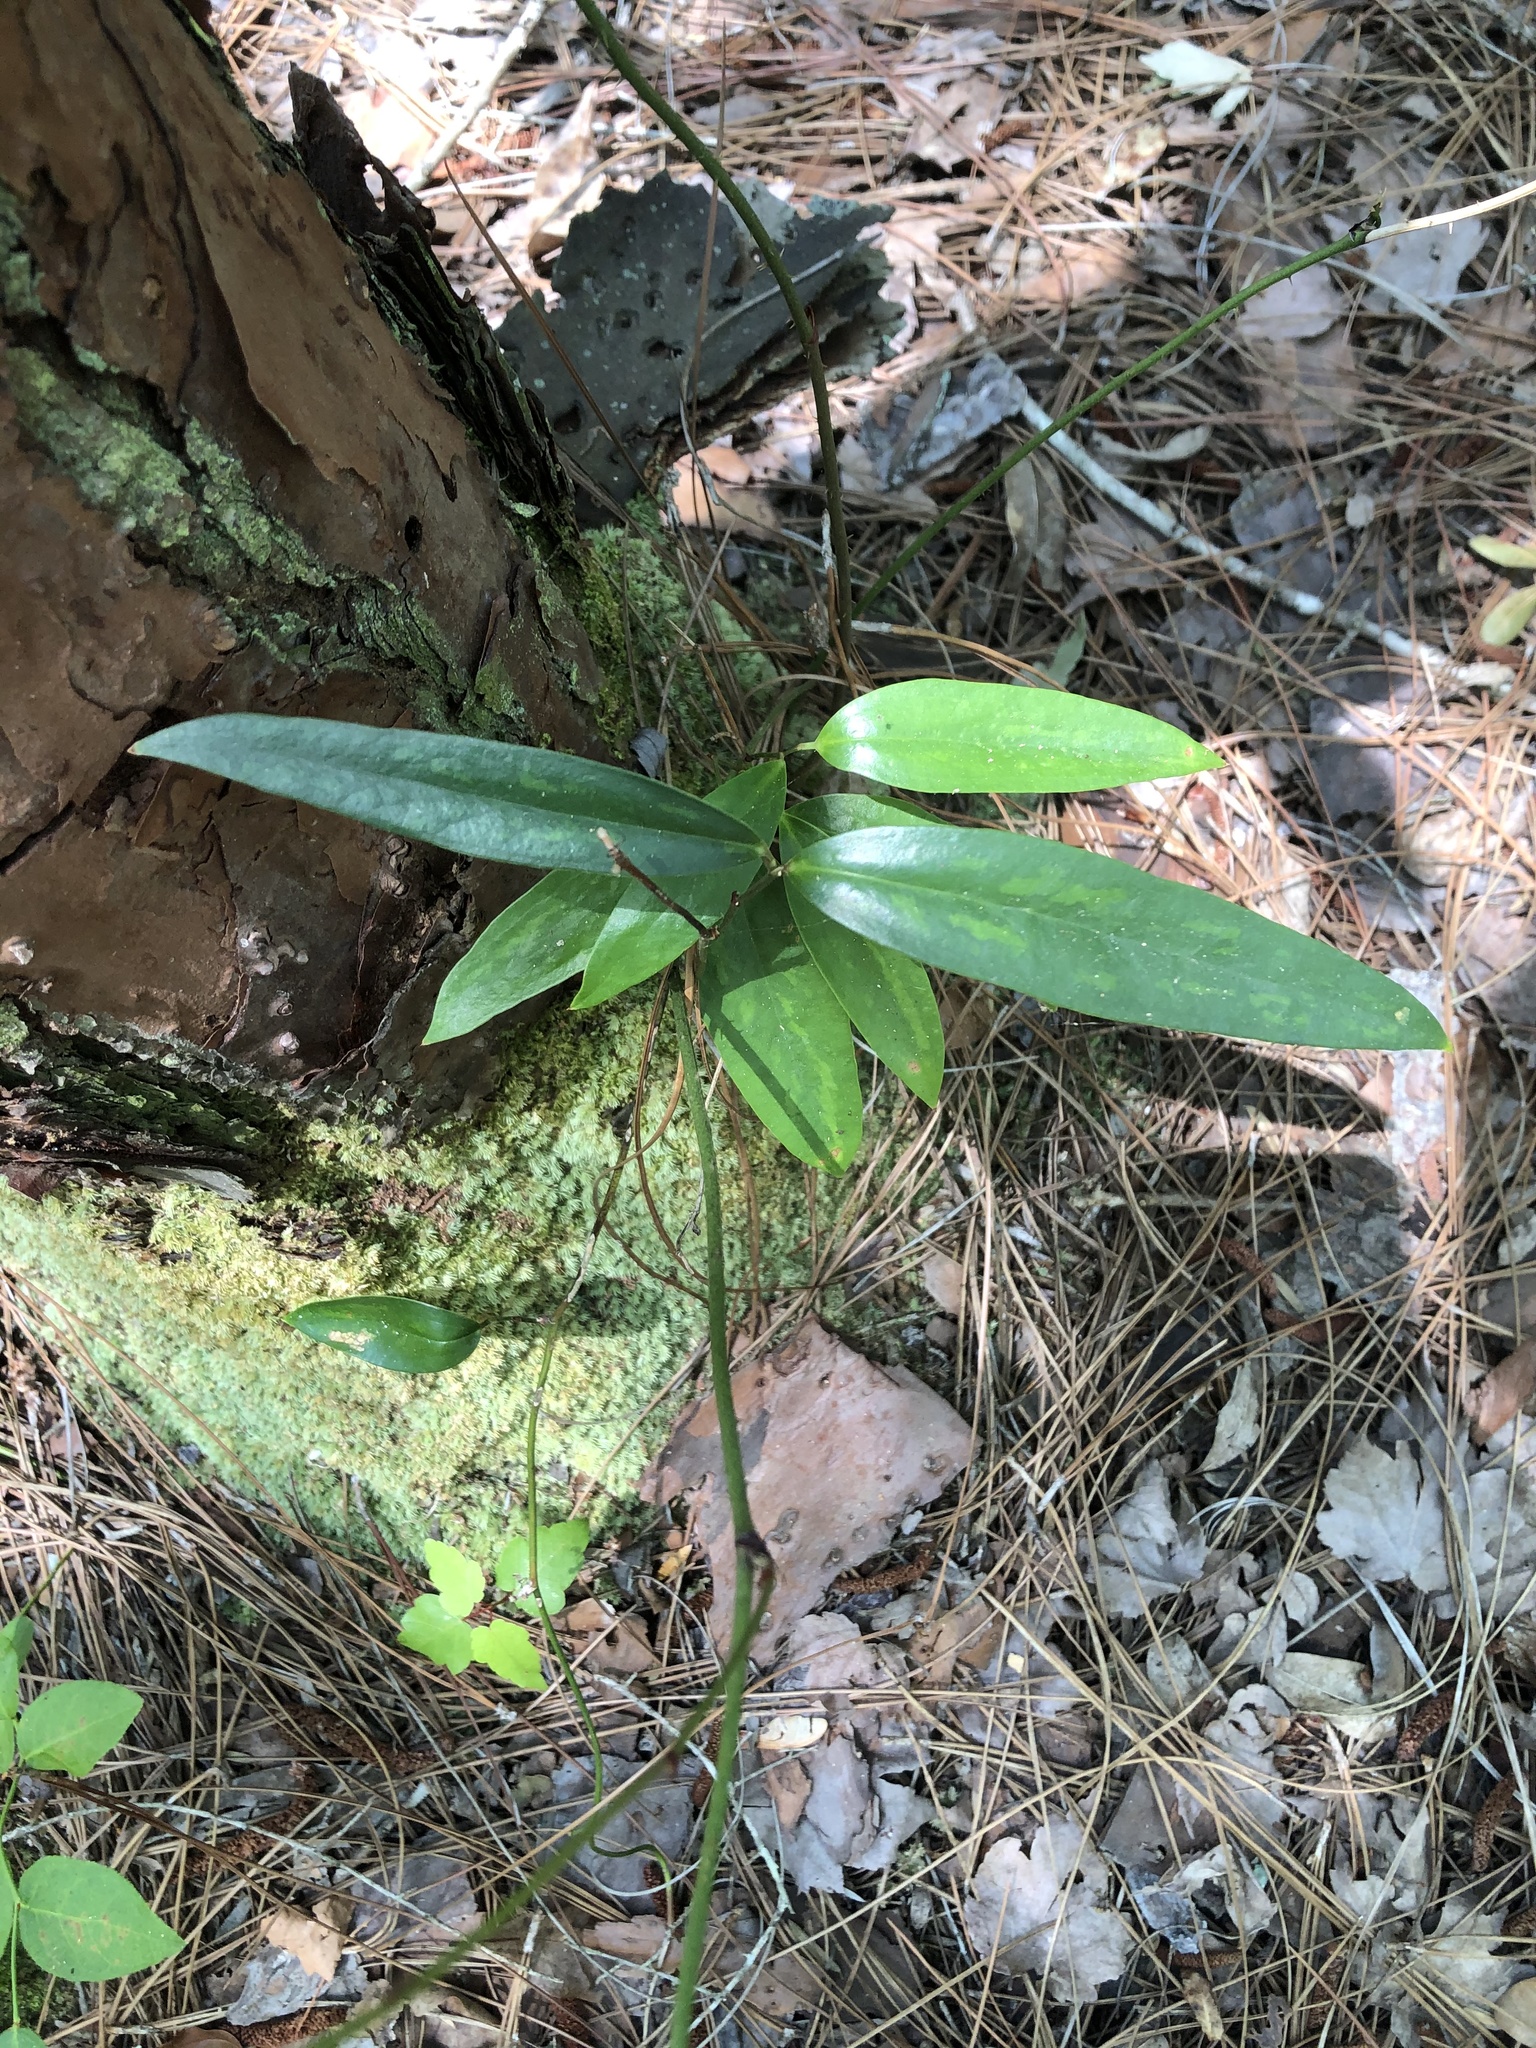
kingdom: Plantae
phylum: Tracheophyta
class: Liliopsida
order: Liliales
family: Smilacaceae
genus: Smilax
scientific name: Smilax laurifolia
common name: Bamboovine
